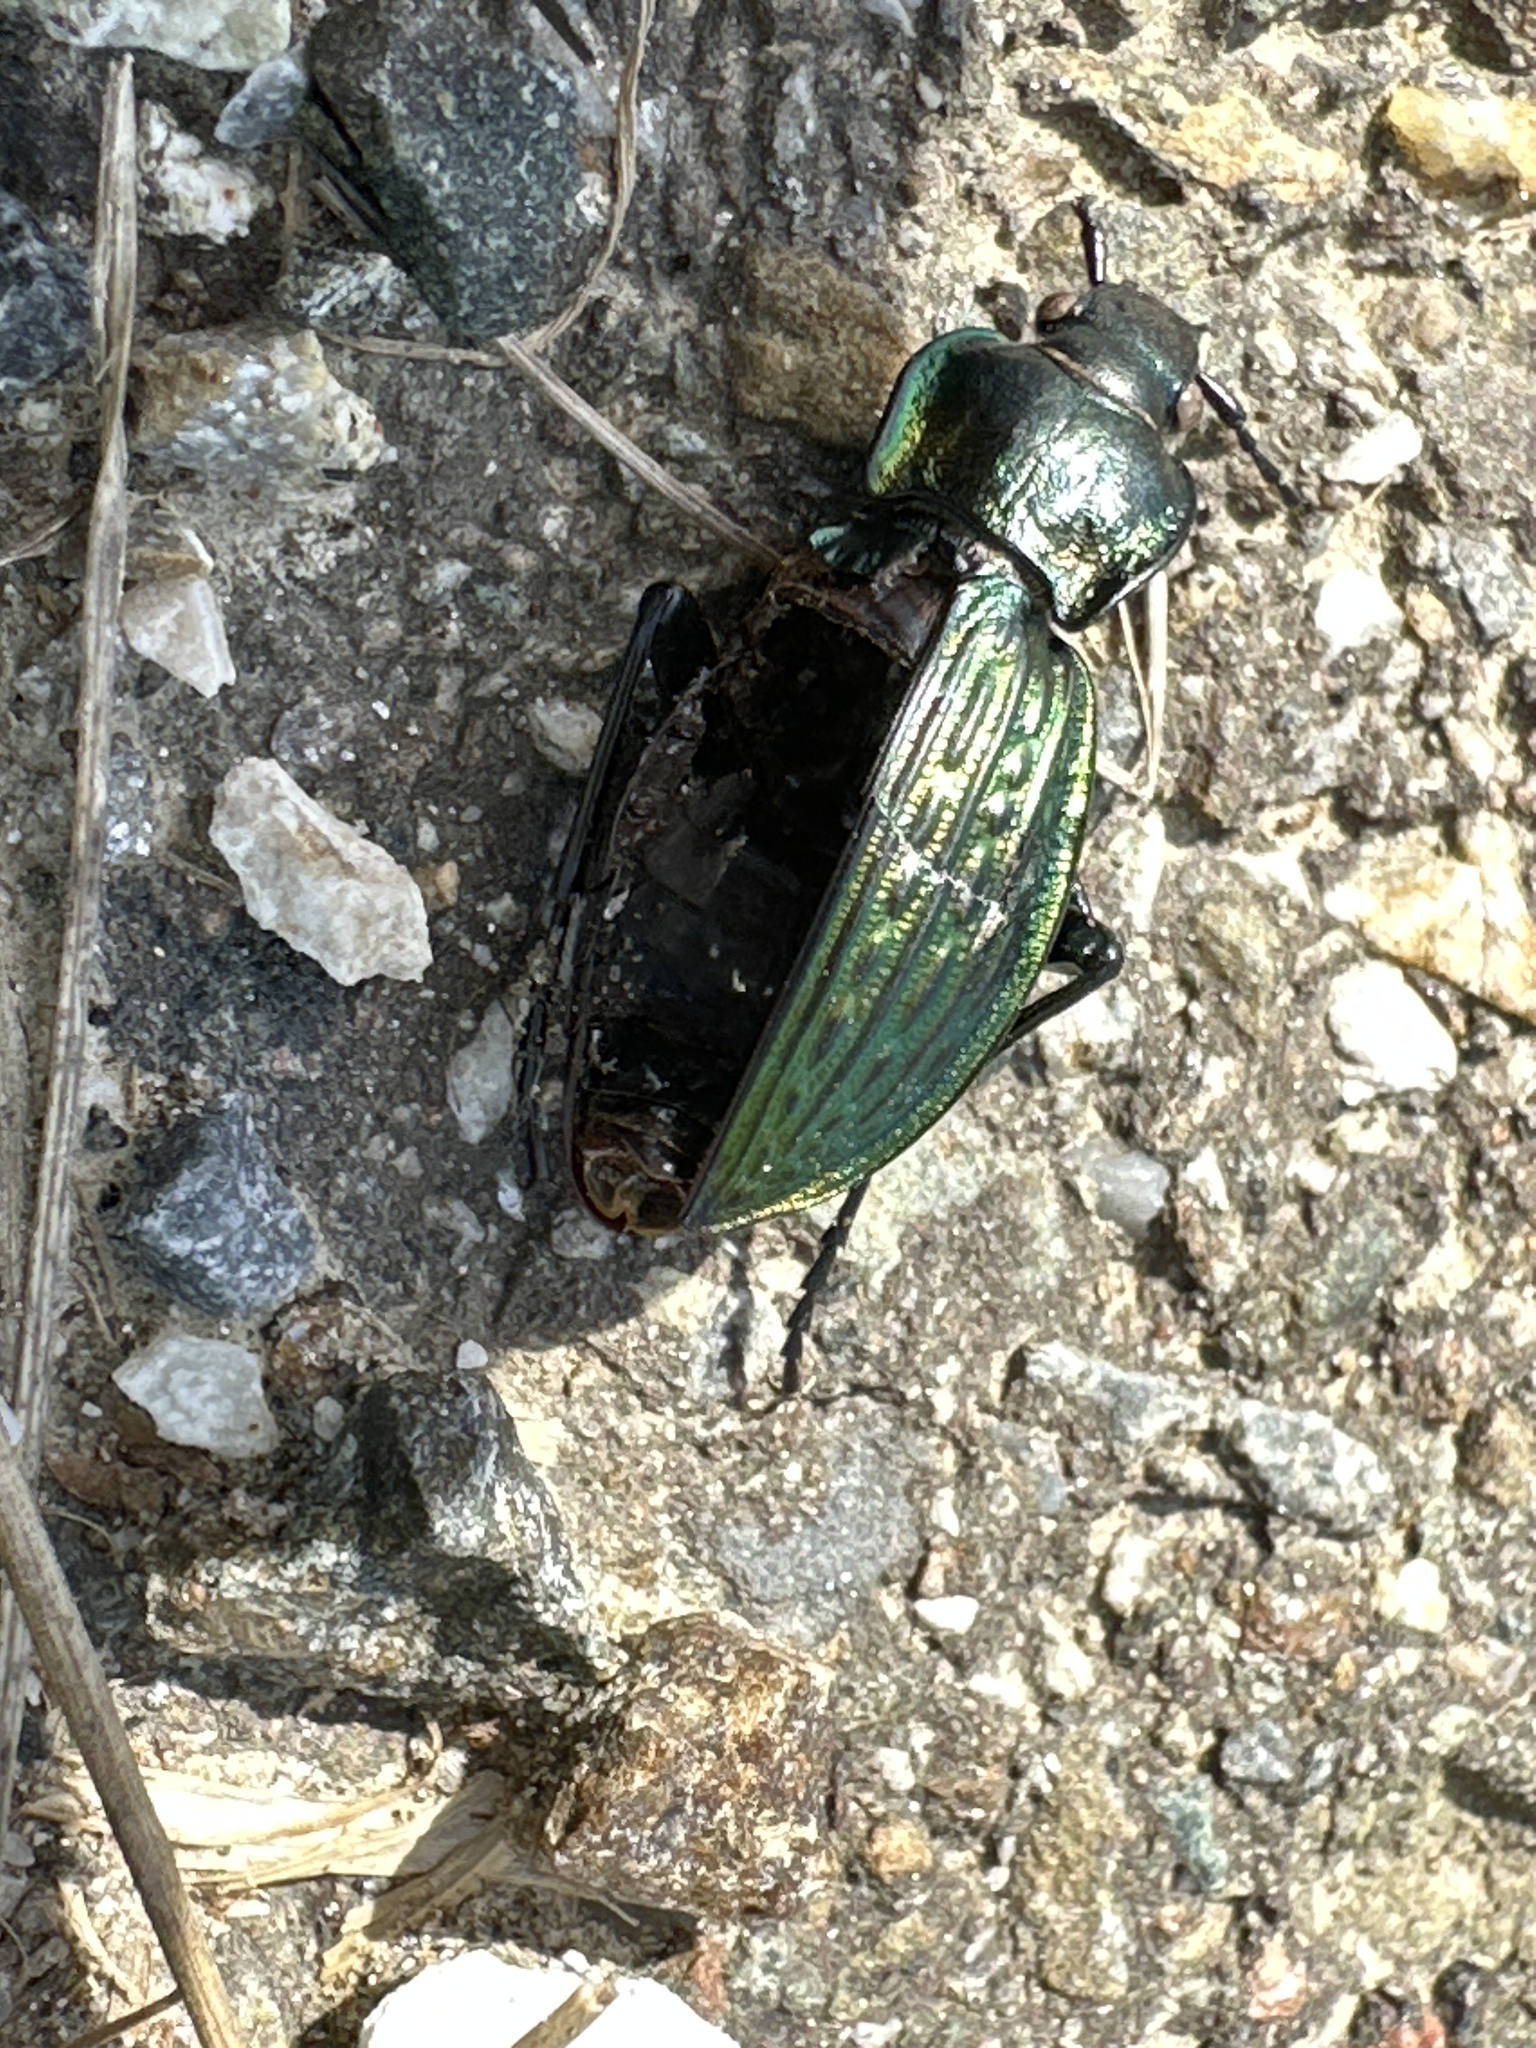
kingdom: Animalia
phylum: Arthropoda
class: Insecta
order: Coleoptera
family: Carabidae
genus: Carabus
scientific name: Carabus ulrichii
